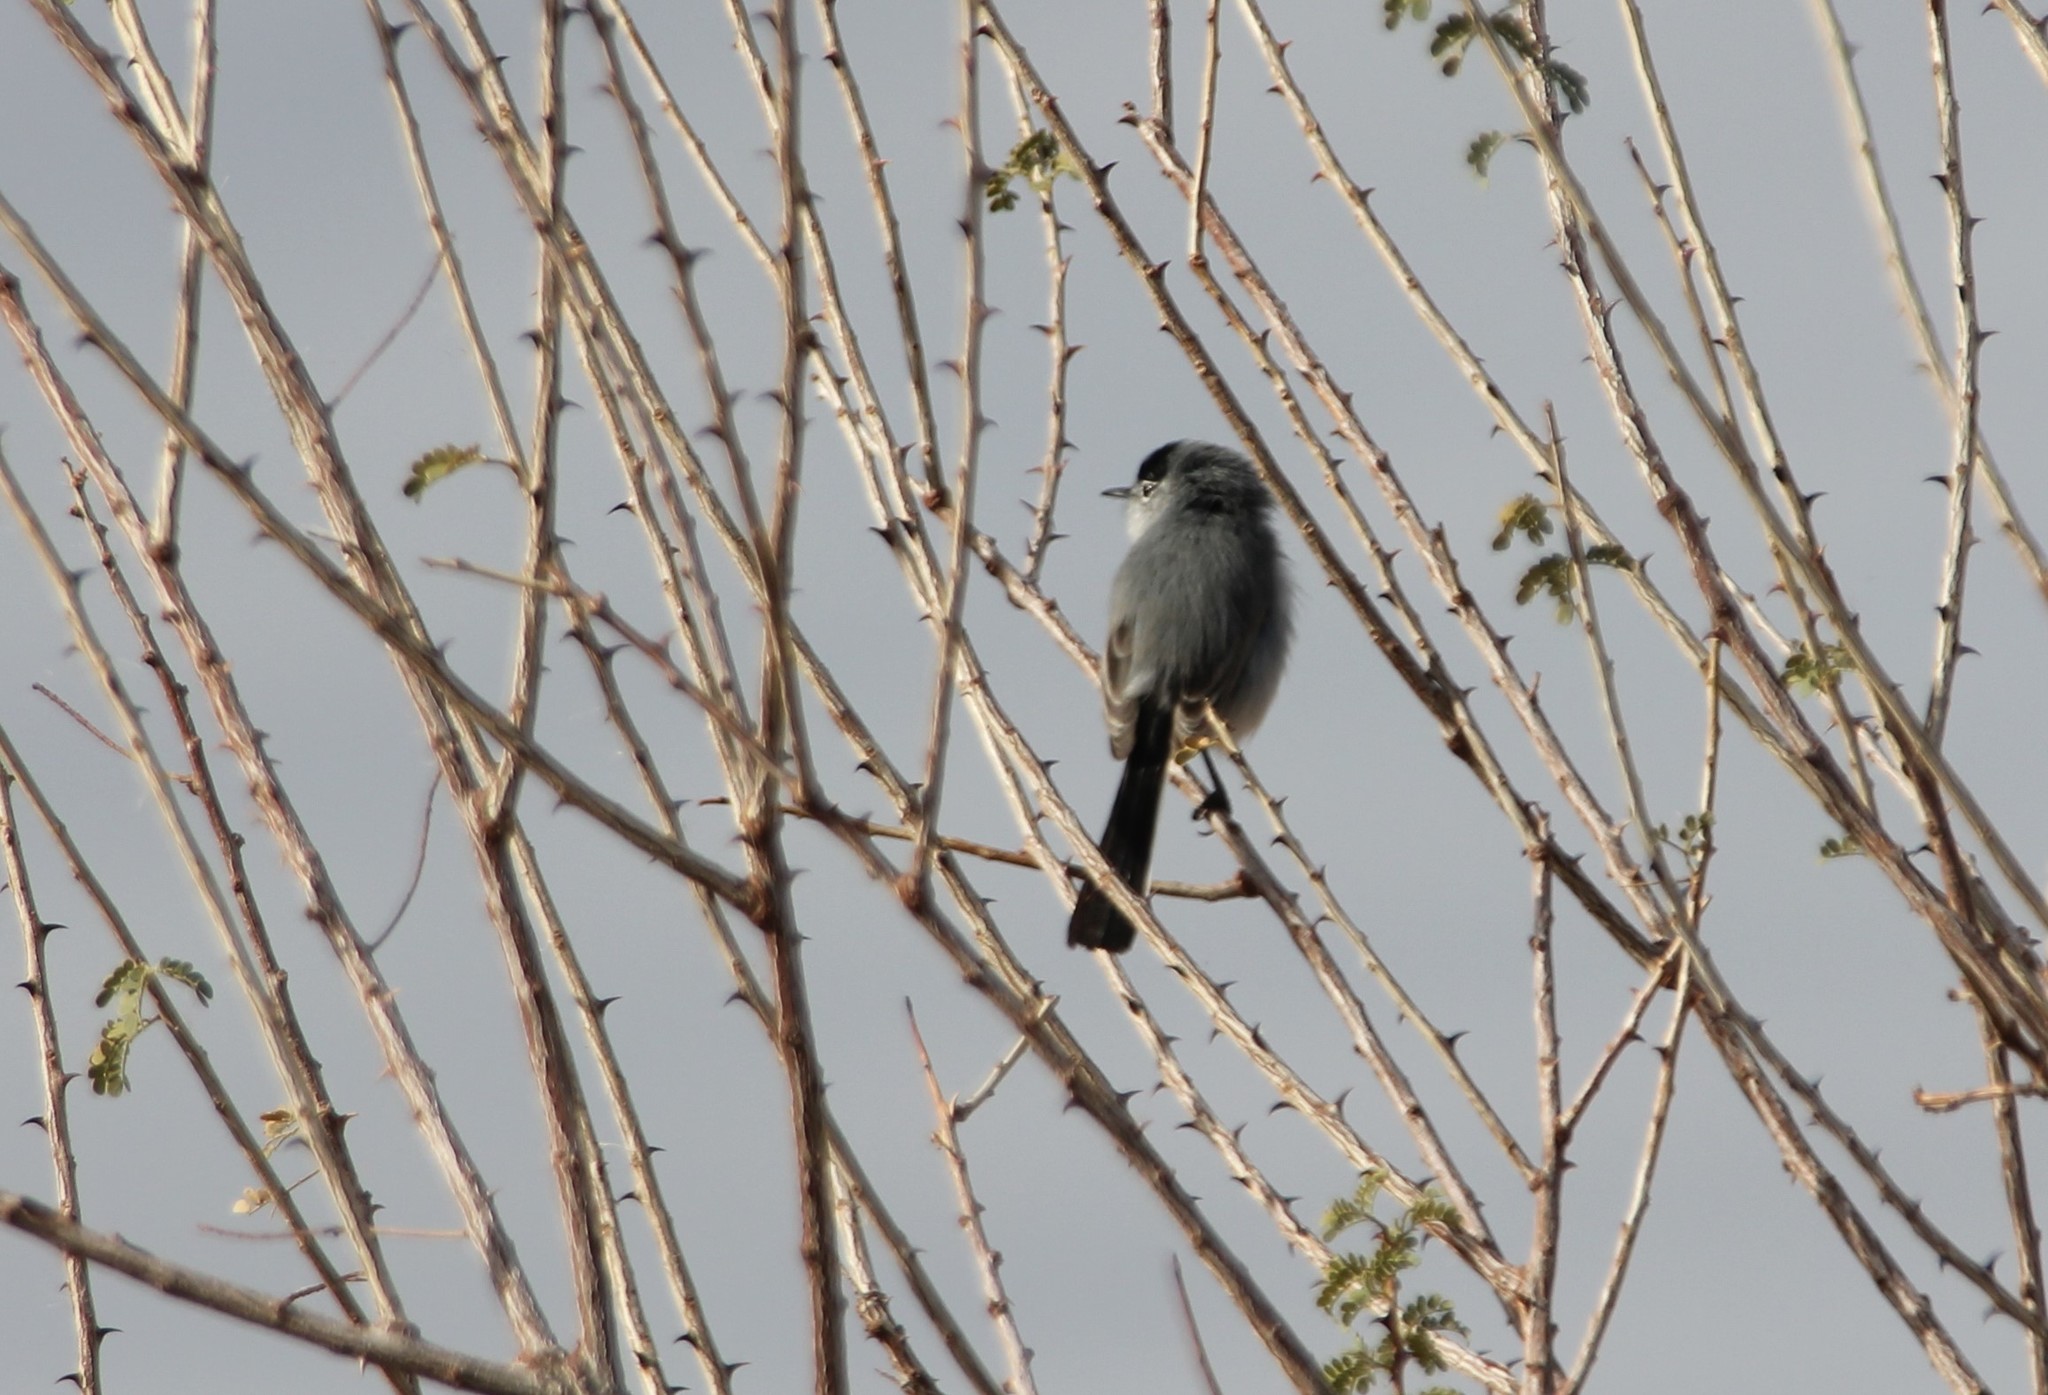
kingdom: Animalia
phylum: Chordata
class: Aves
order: Passeriformes
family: Polioptilidae
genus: Polioptila
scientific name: Polioptila melanura
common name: Black-tailed gnatcatcher
